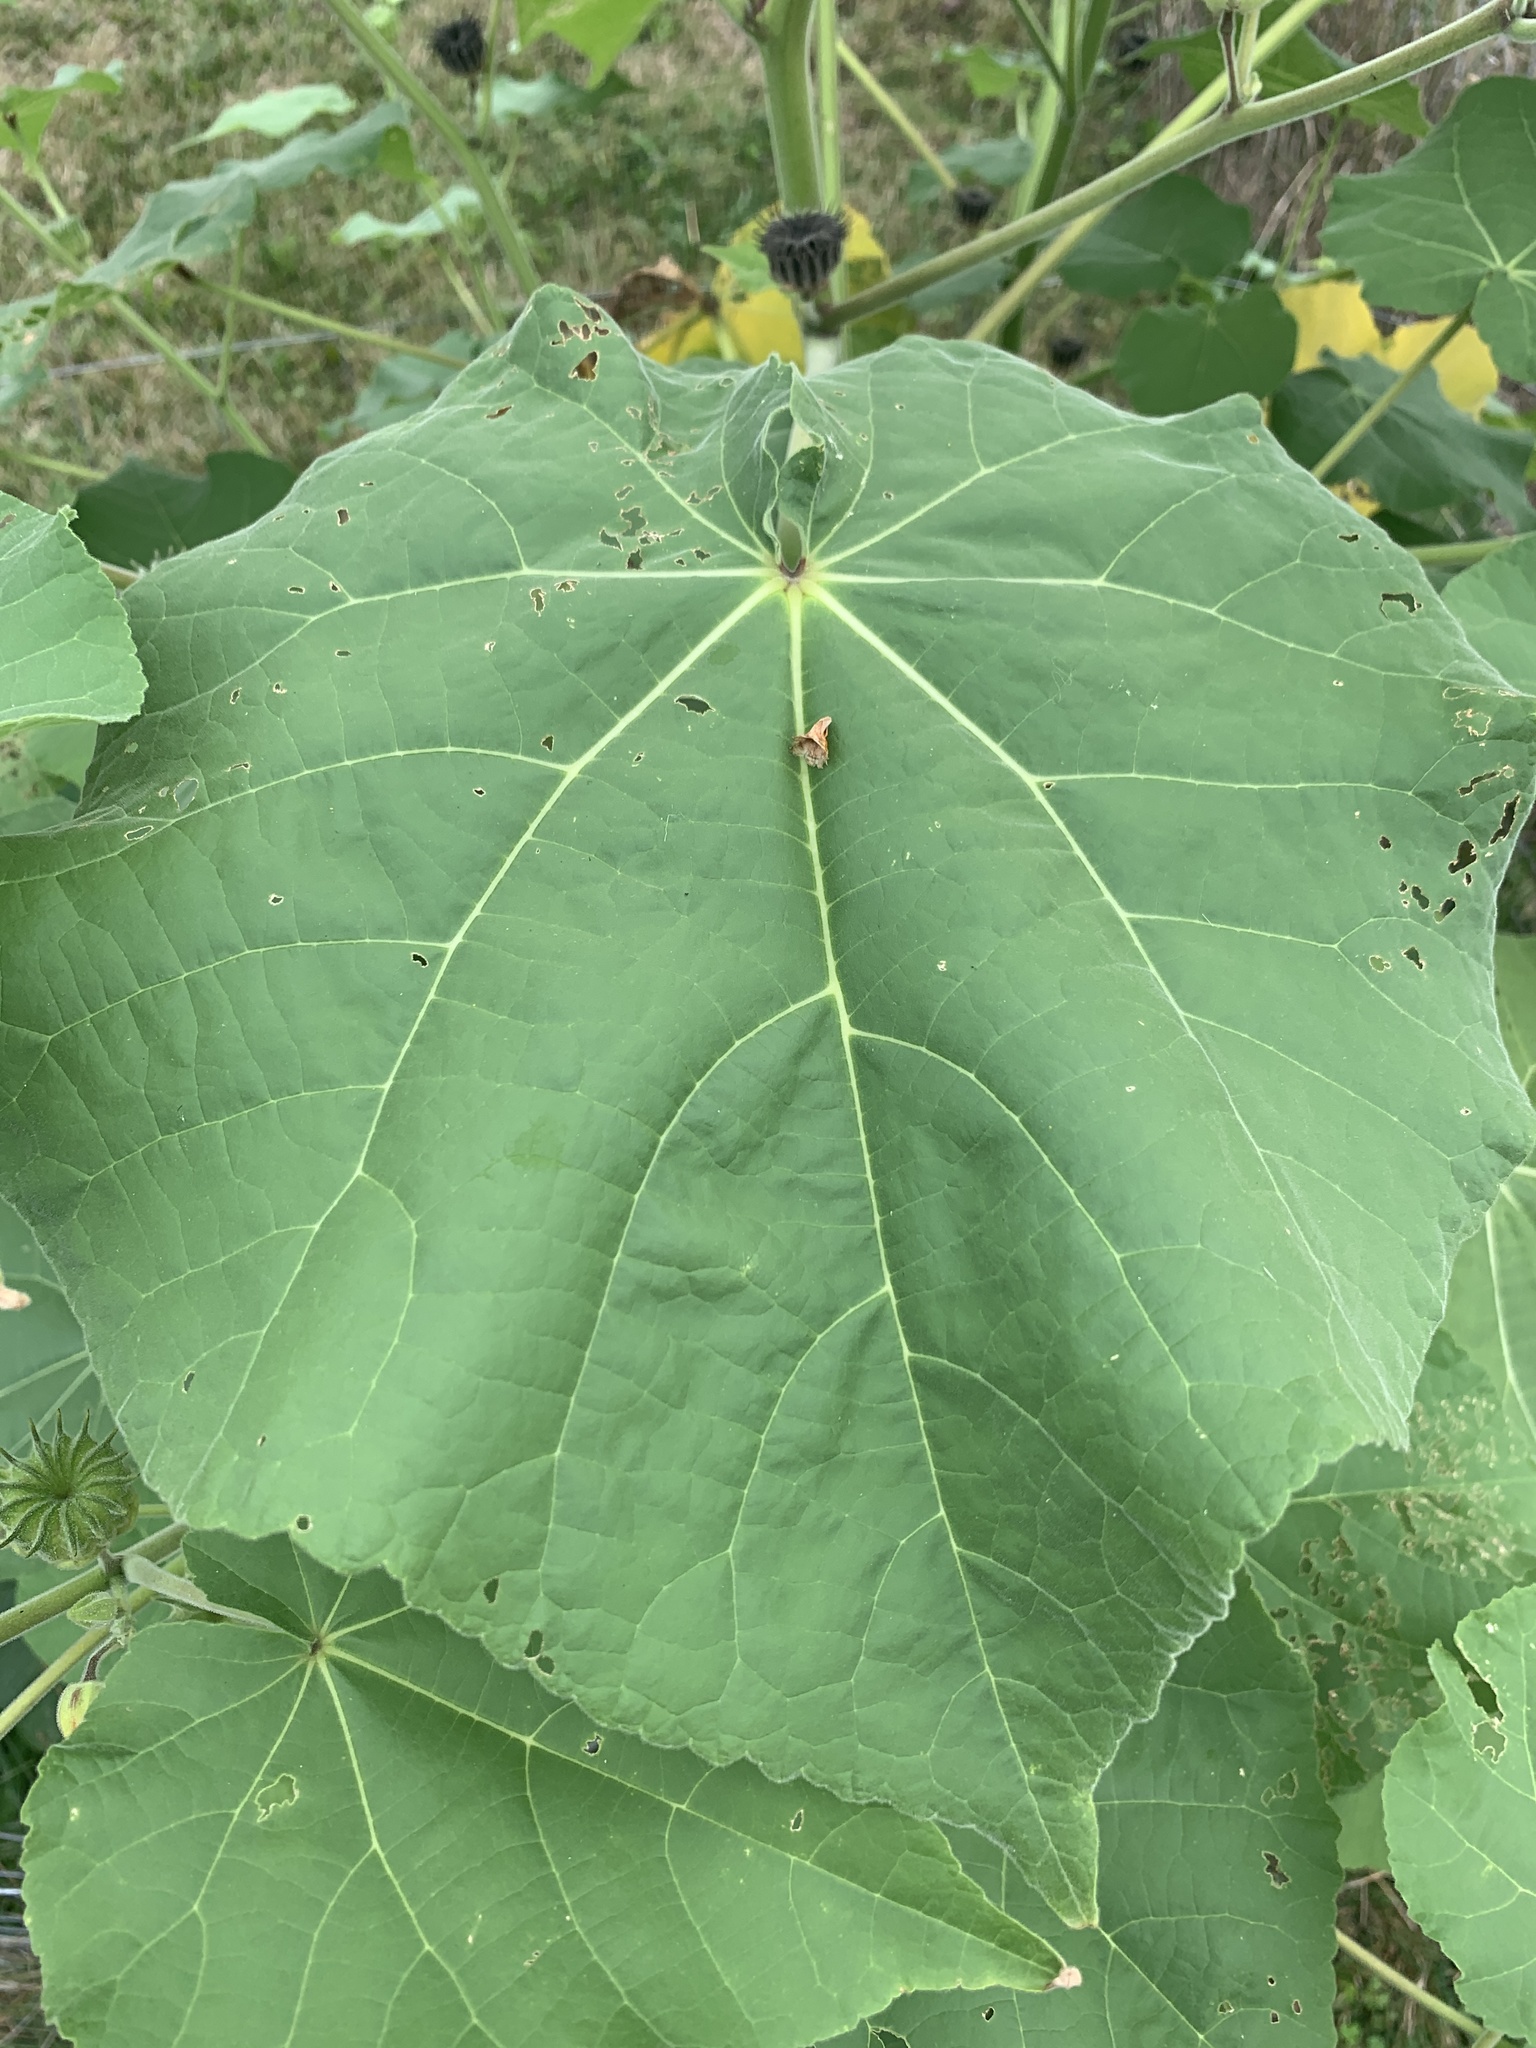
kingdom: Plantae
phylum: Tracheophyta
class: Magnoliopsida
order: Malvales
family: Malvaceae
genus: Abutilon
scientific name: Abutilon theophrasti
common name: Velvetleaf
